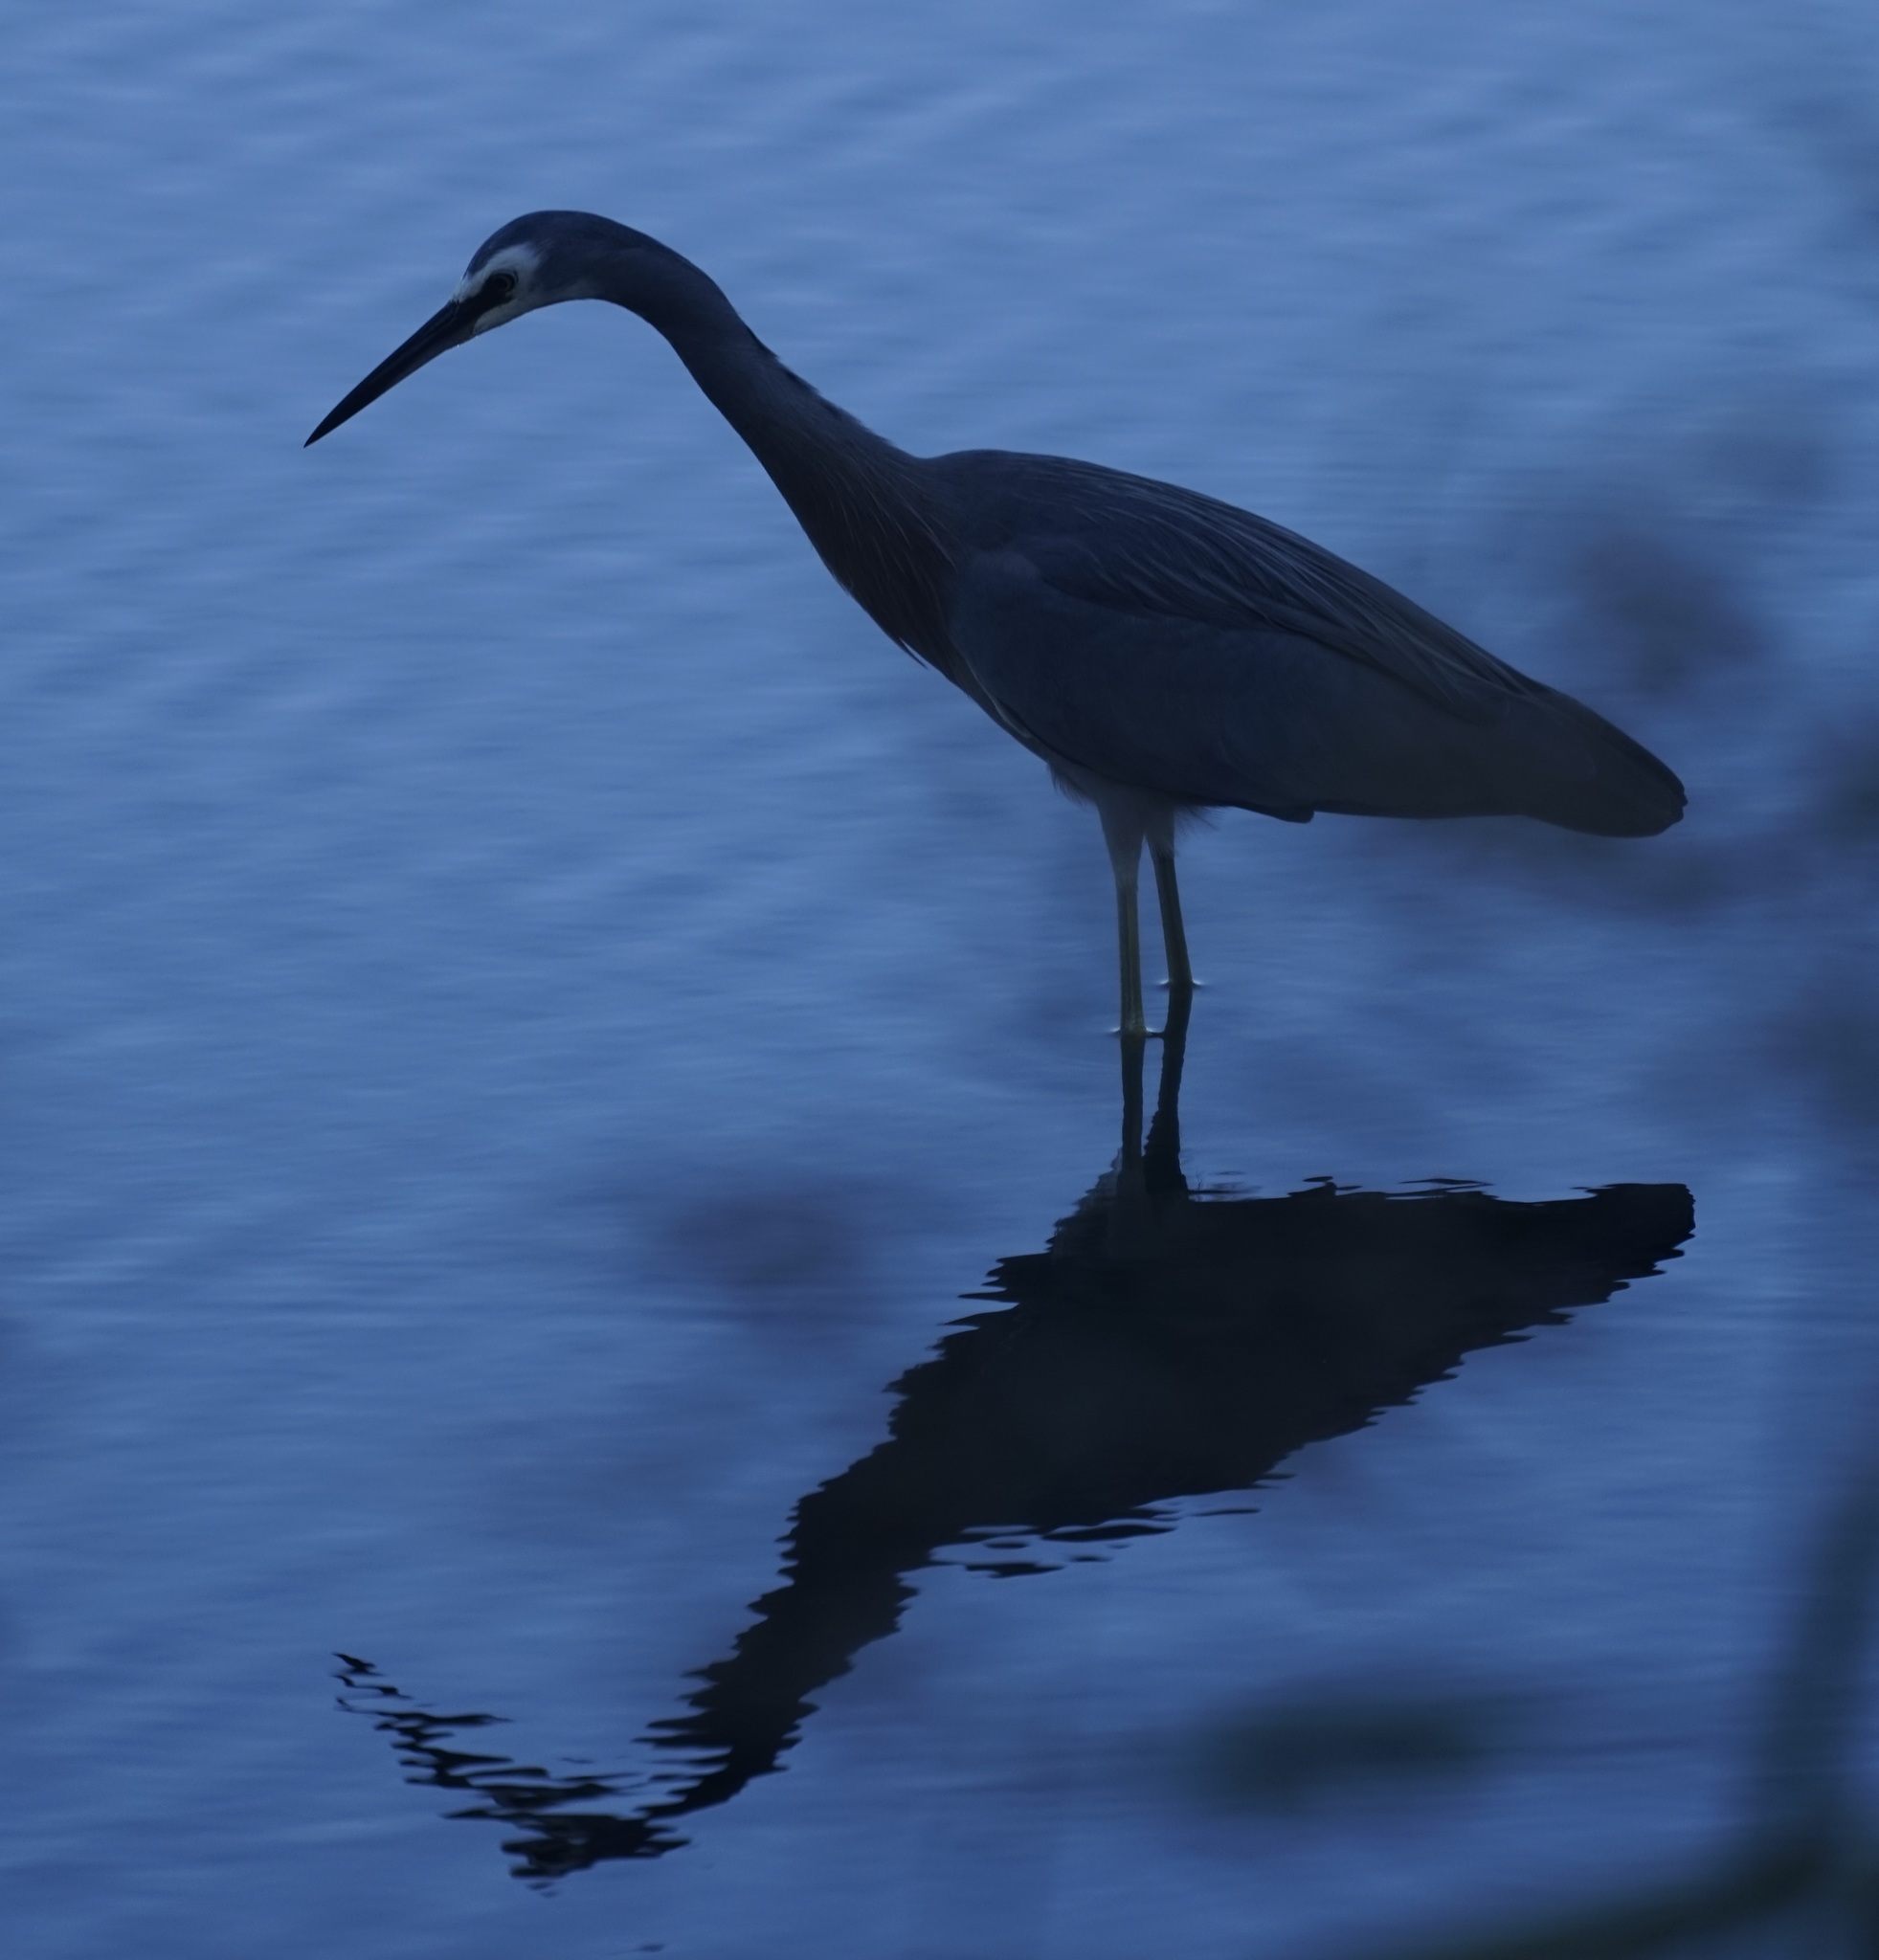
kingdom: Animalia
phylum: Chordata
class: Aves
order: Pelecaniformes
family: Ardeidae
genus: Egretta
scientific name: Egretta novaehollandiae
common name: White-faced heron
